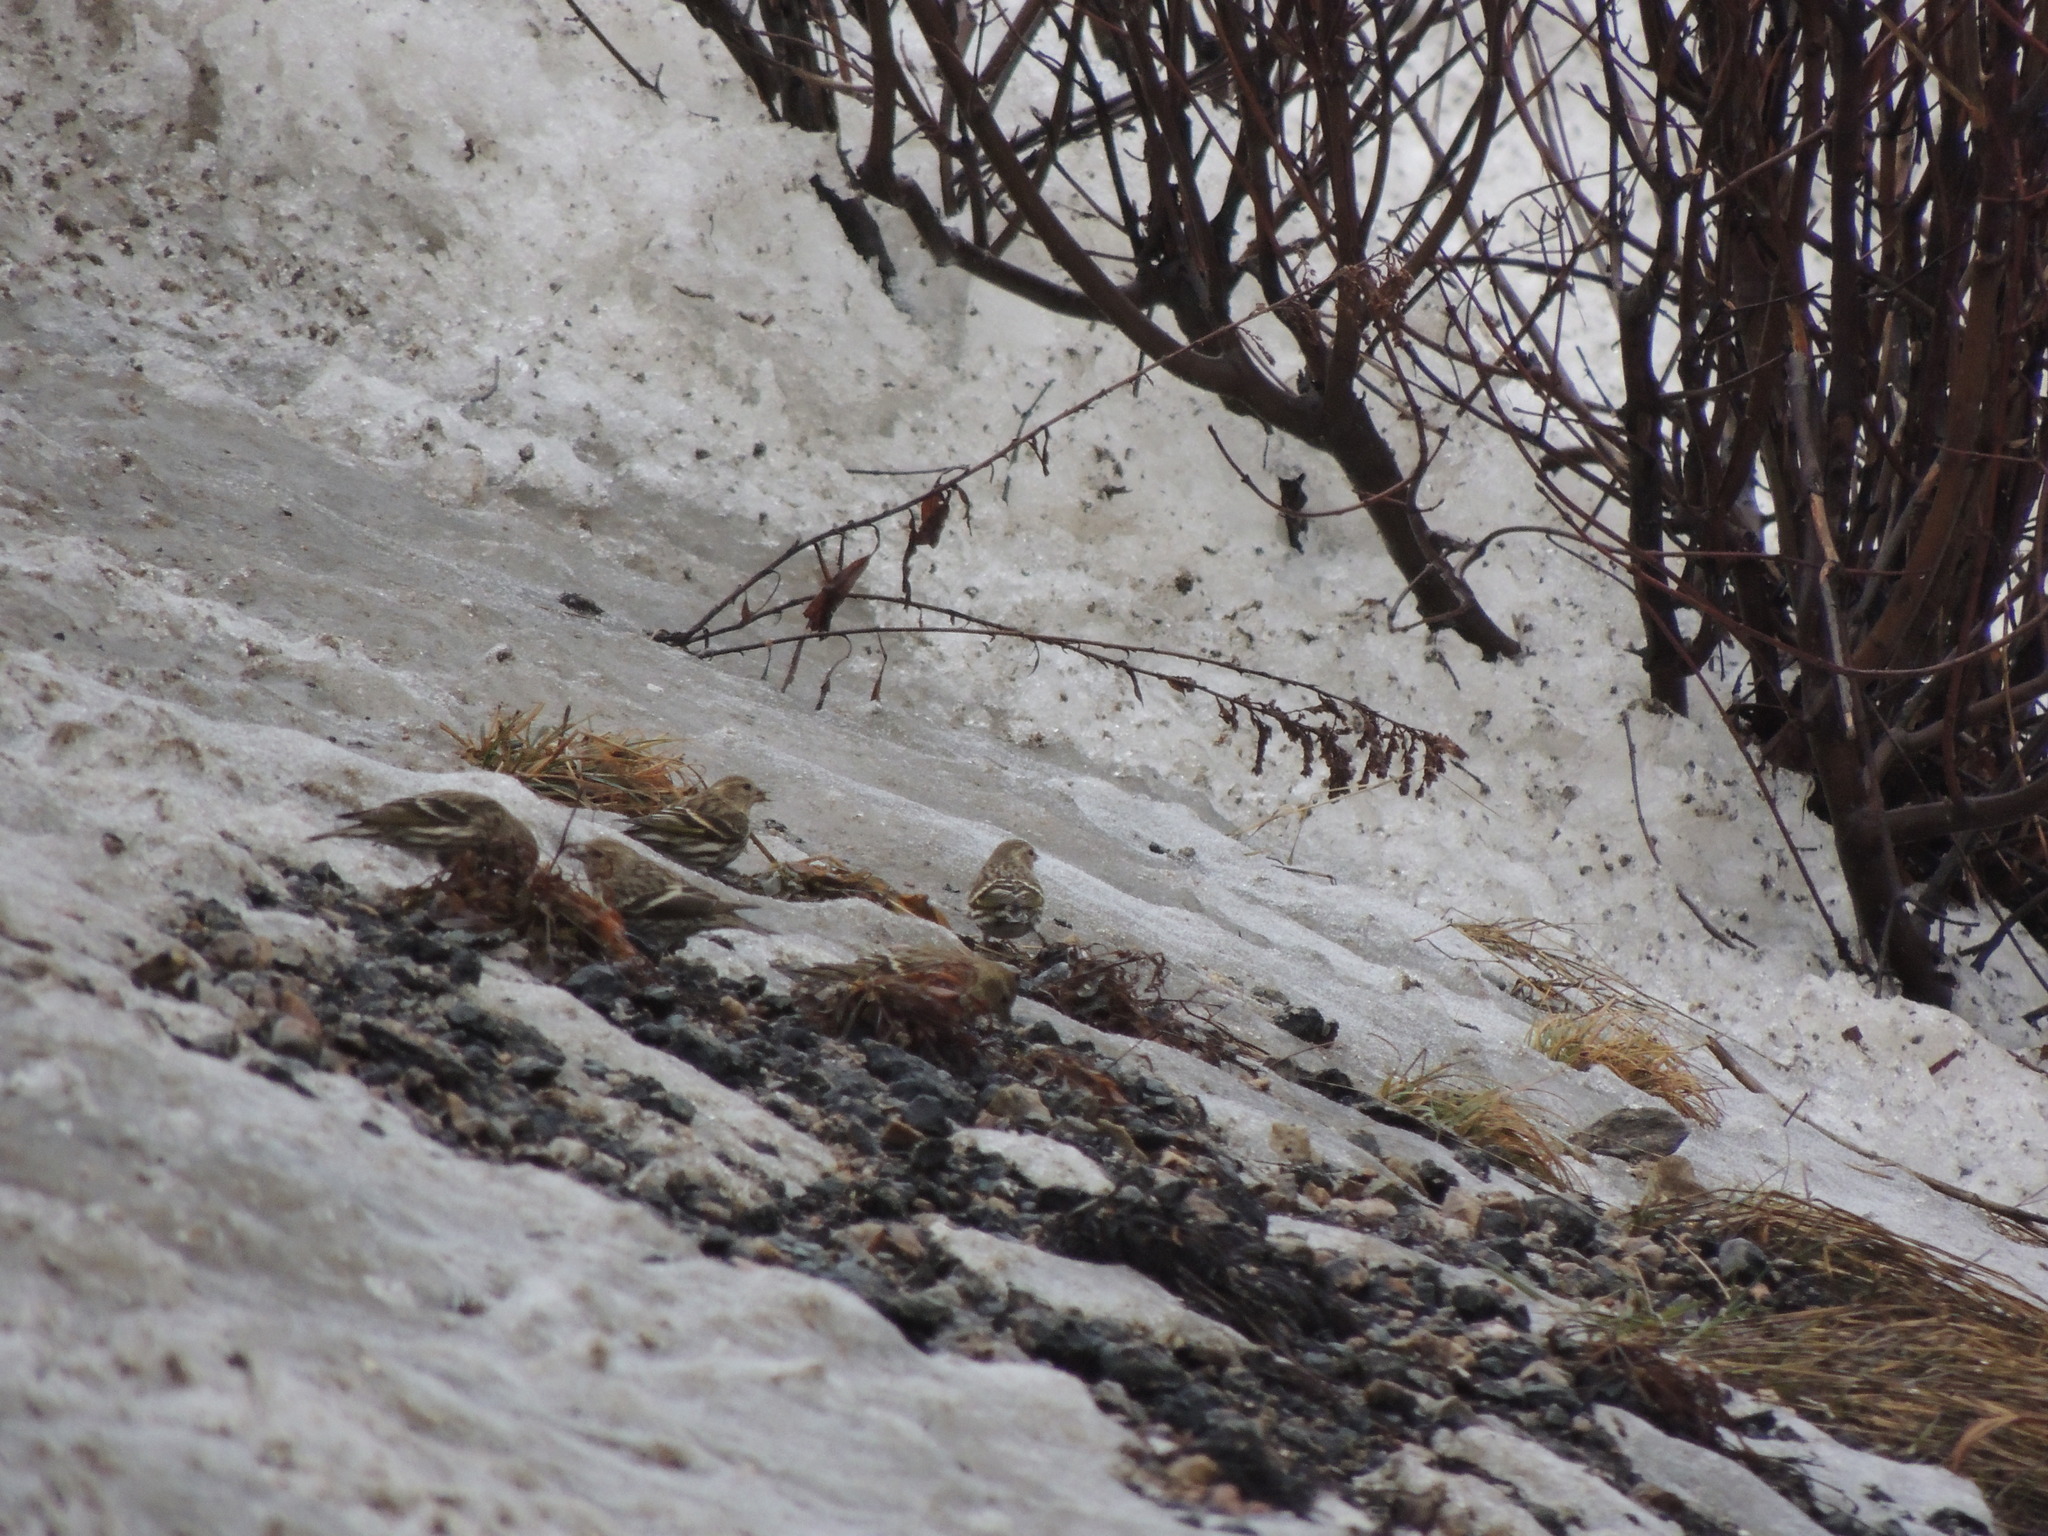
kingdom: Animalia
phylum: Chordata
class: Aves
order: Passeriformes
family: Fringillidae
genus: Spinus
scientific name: Spinus pinus
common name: Pine siskin
